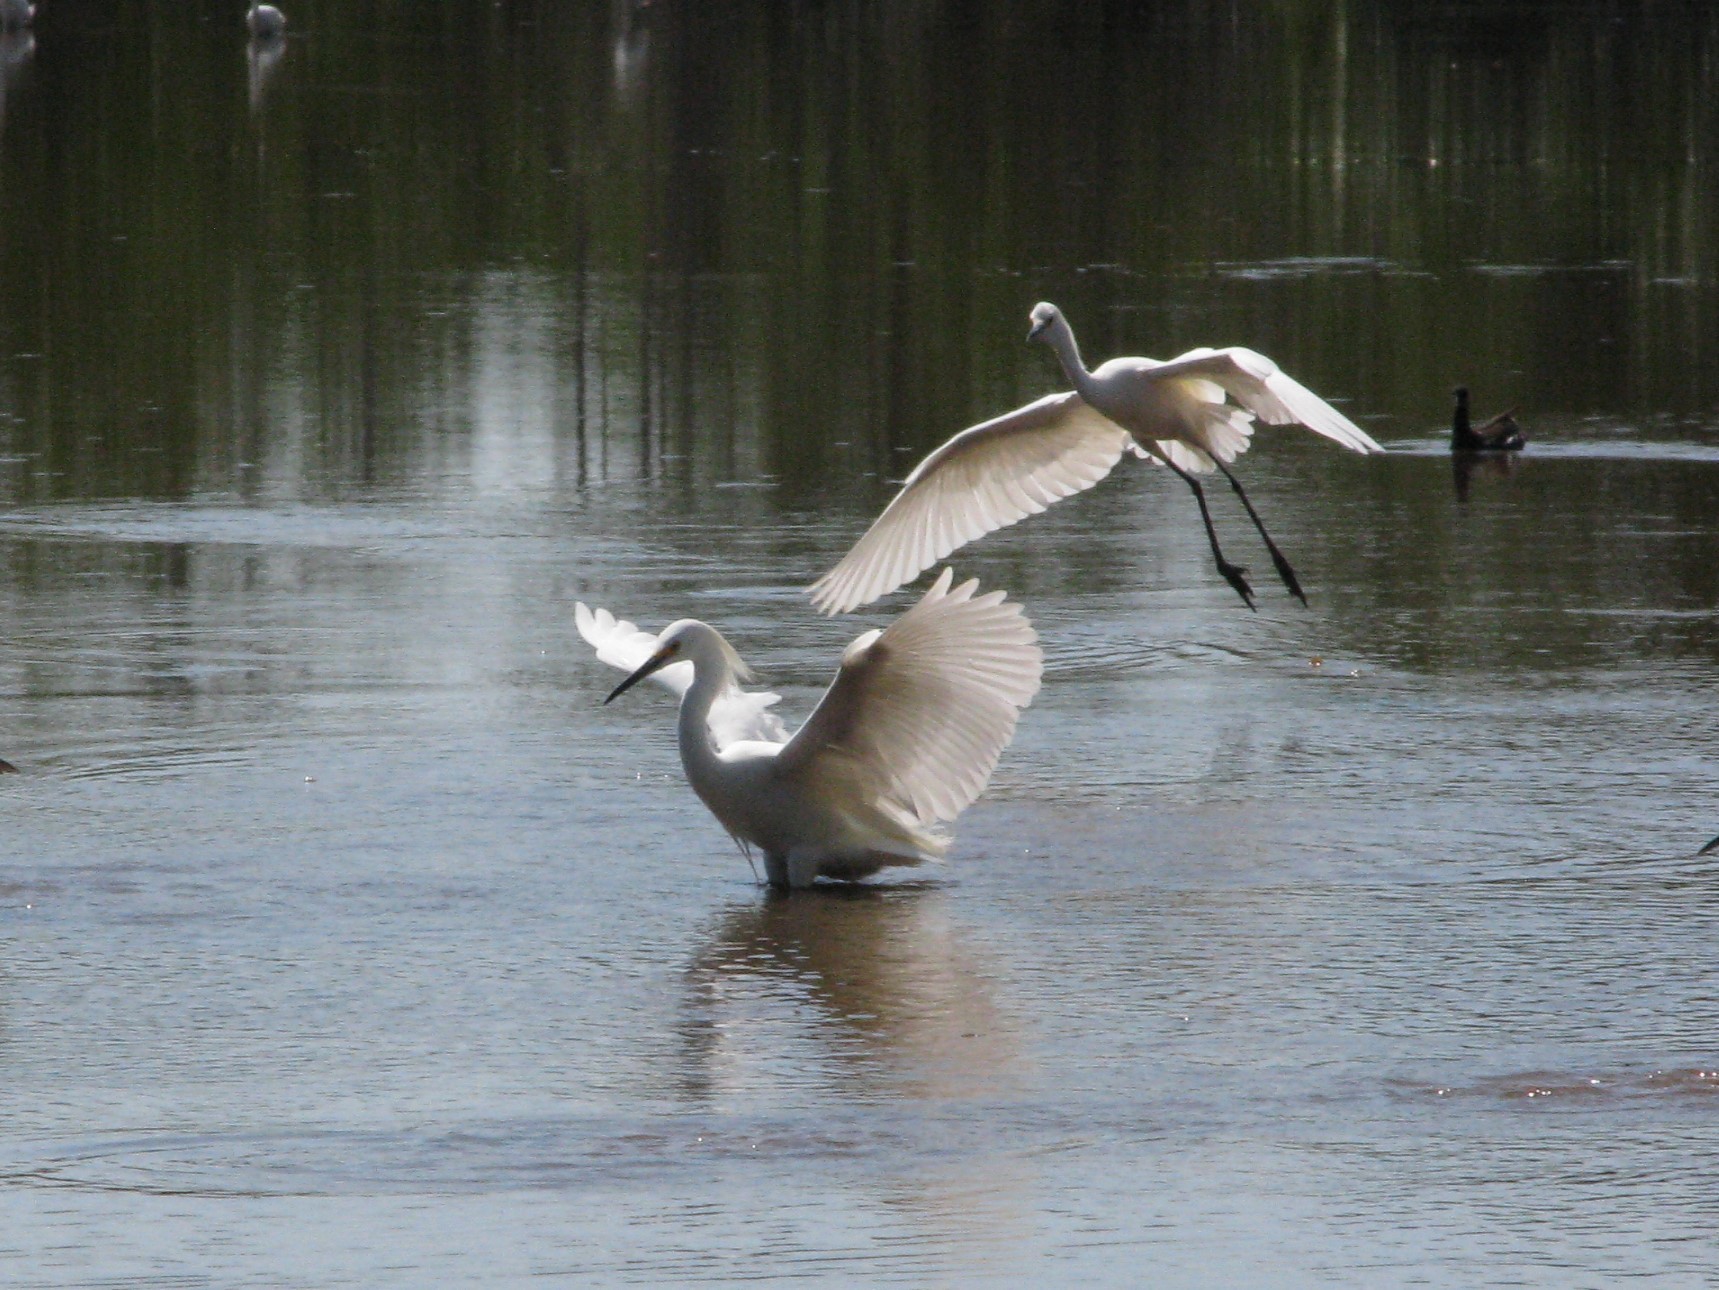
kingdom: Animalia
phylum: Chordata
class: Aves
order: Pelecaniformes
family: Ardeidae
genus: Egretta
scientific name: Egretta thula
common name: Snowy egret
